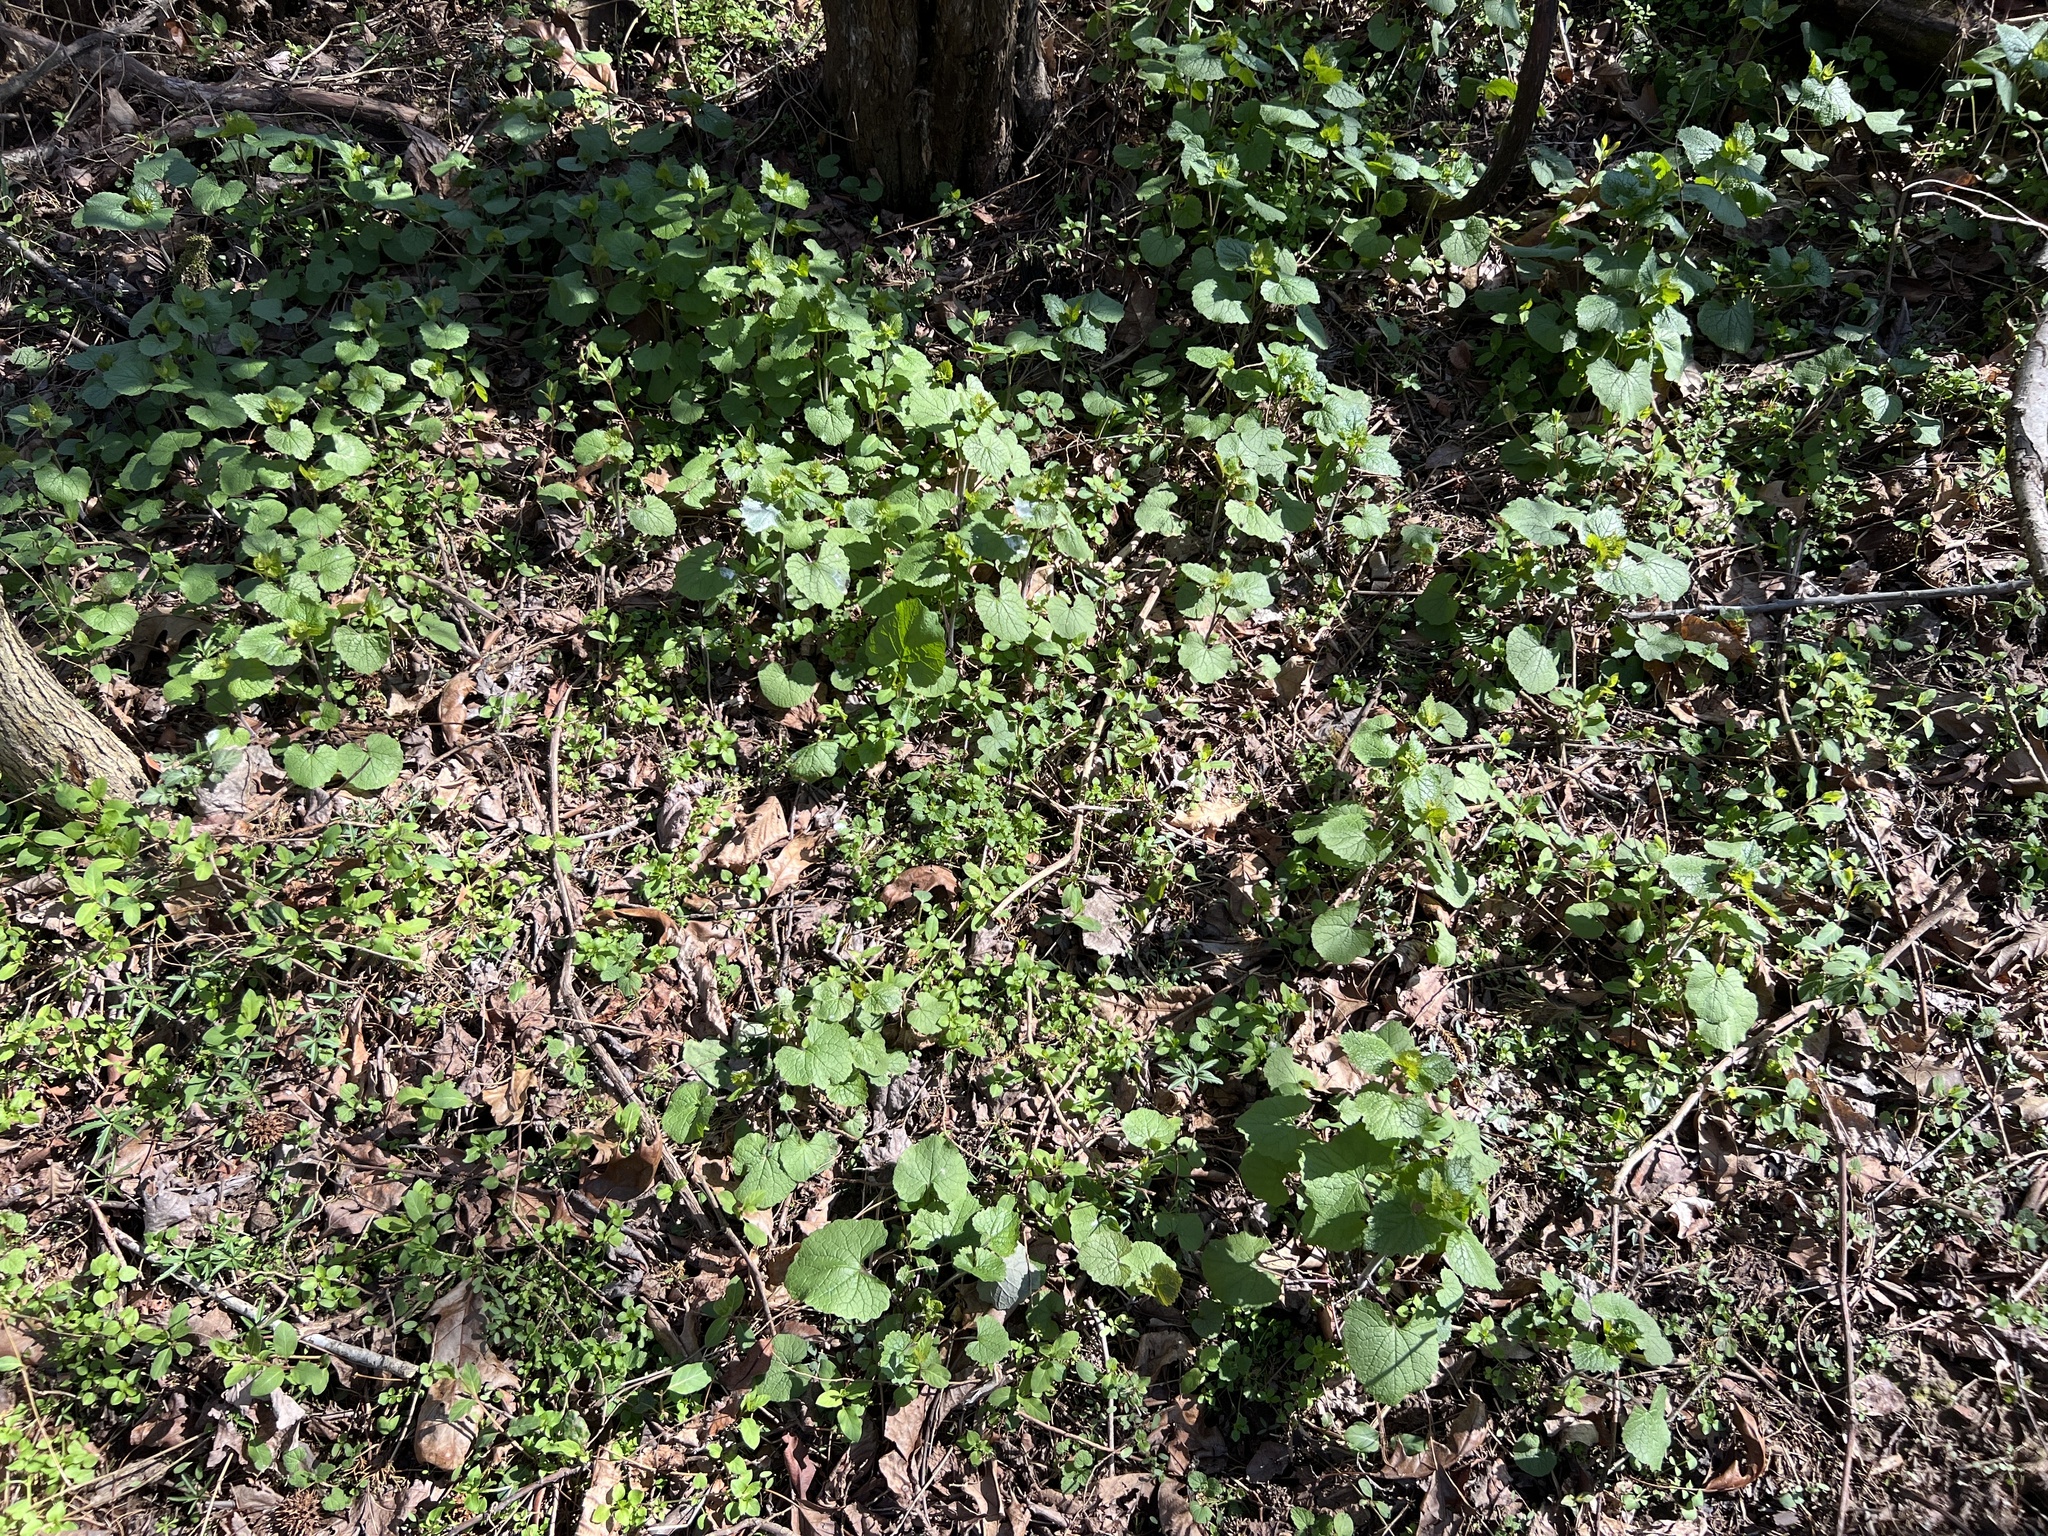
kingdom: Plantae
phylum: Tracheophyta
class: Magnoliopsida
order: Brassicales
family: Brassicaceae
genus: Alliaria
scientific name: Alliaria petiolata
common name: Garlic mustard
